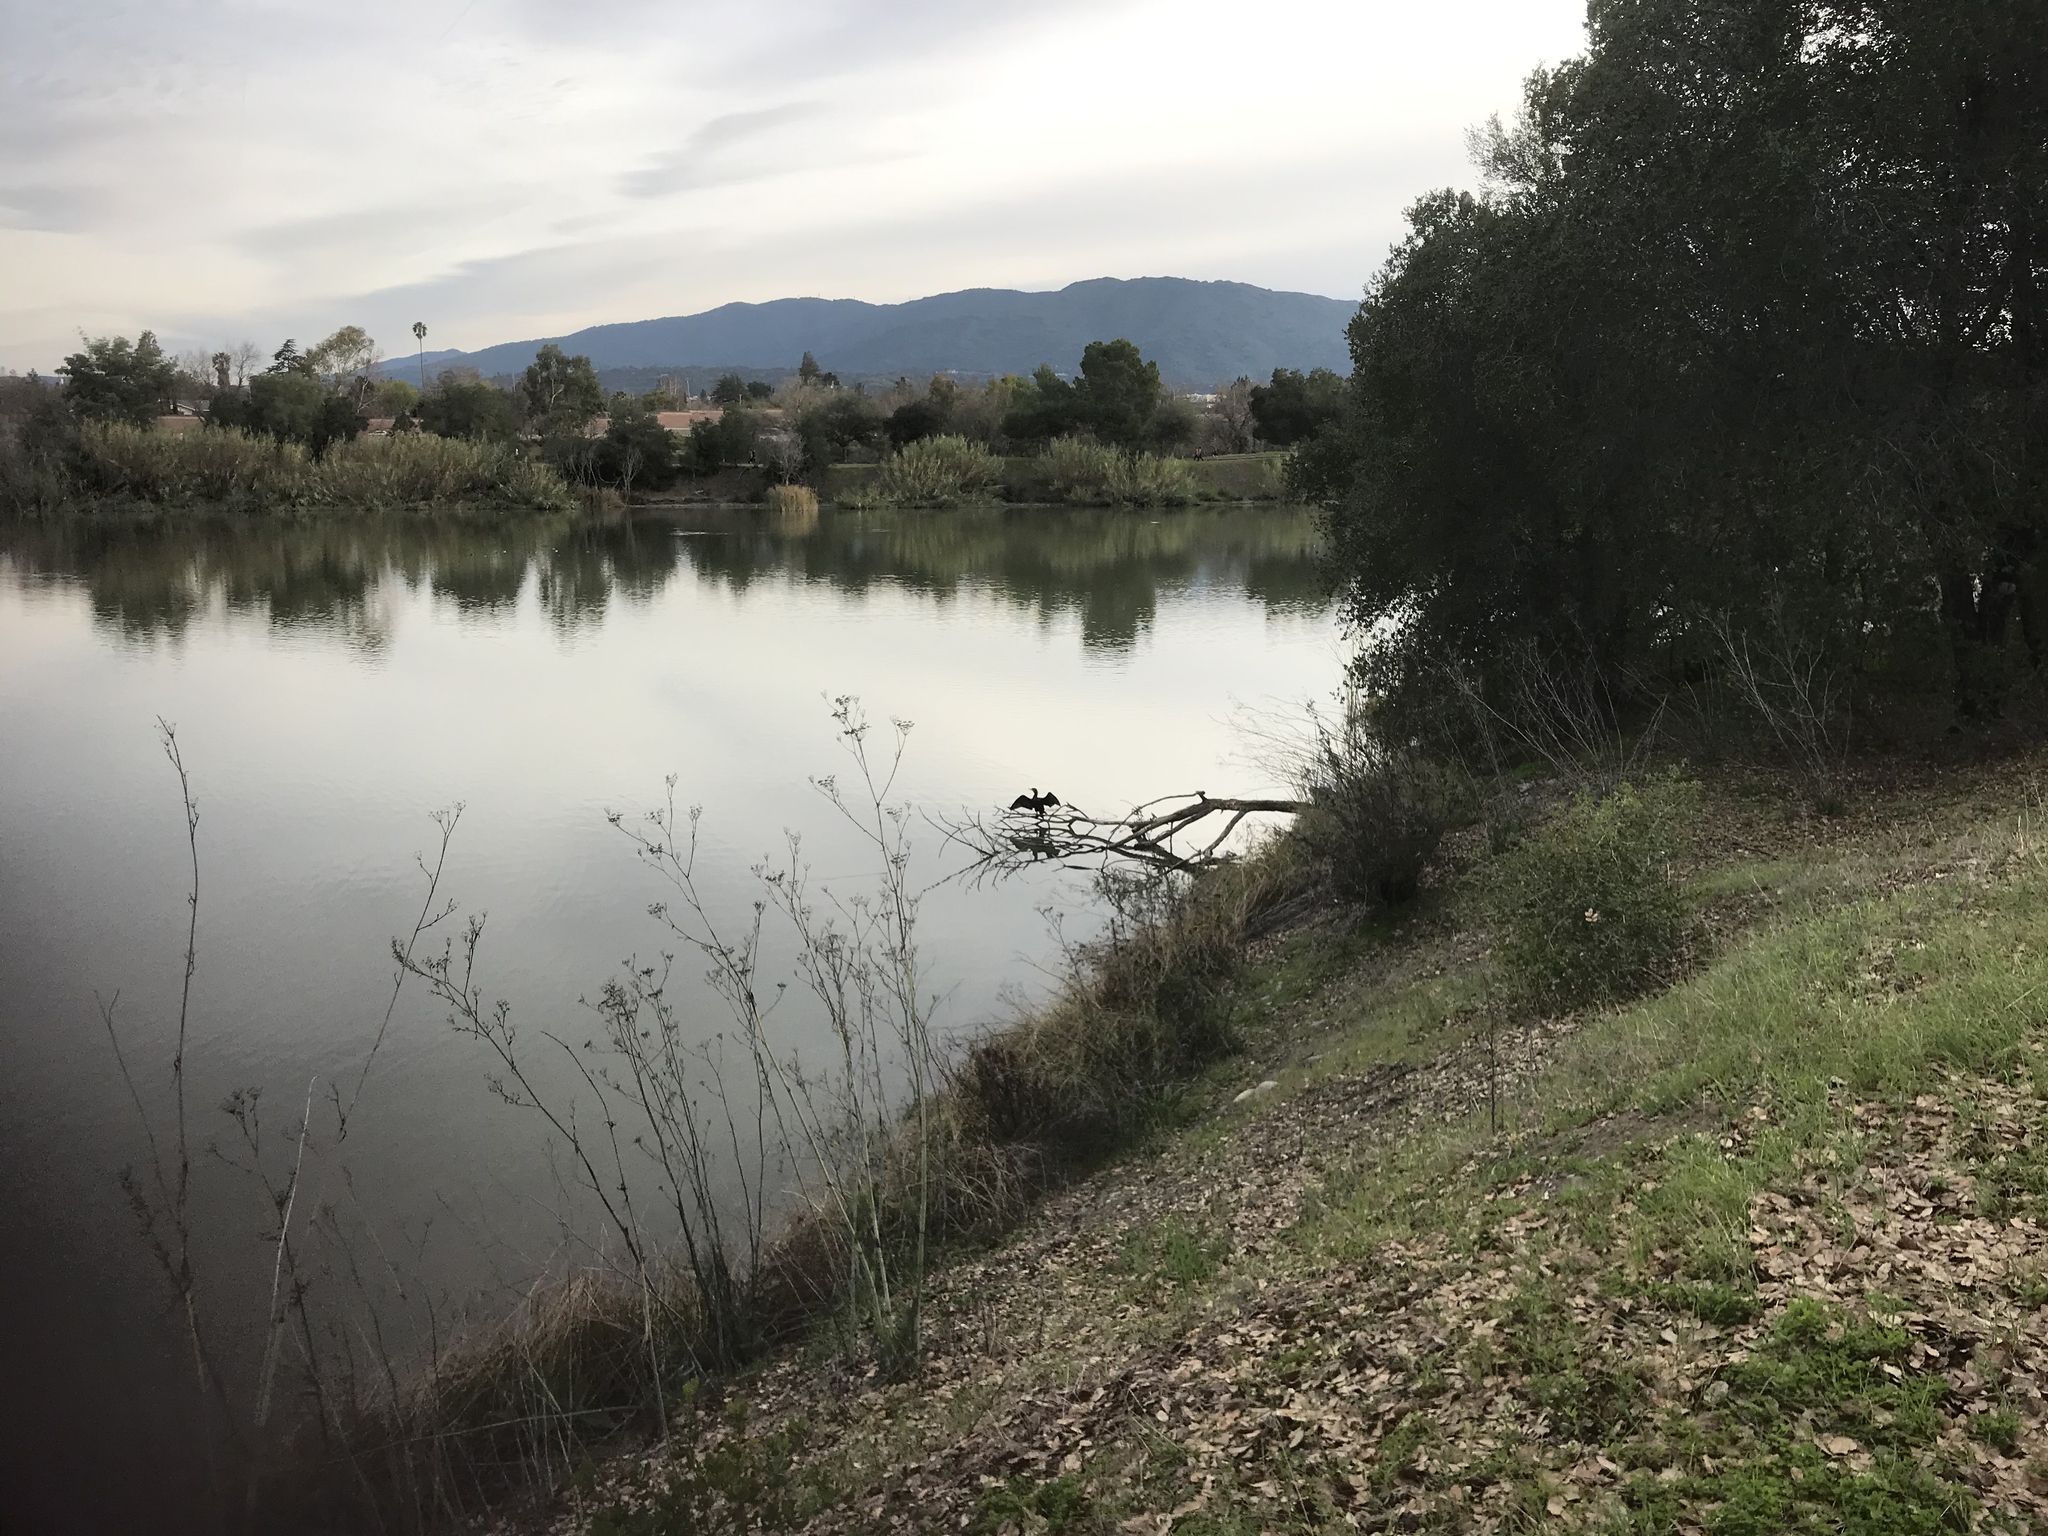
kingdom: Animalia
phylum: Chordata
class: Aves
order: Suliformes
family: Phalacrocoracidae
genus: Phalacrocorax
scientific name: Phalacrocorax auritus
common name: Double-crested cormorant
